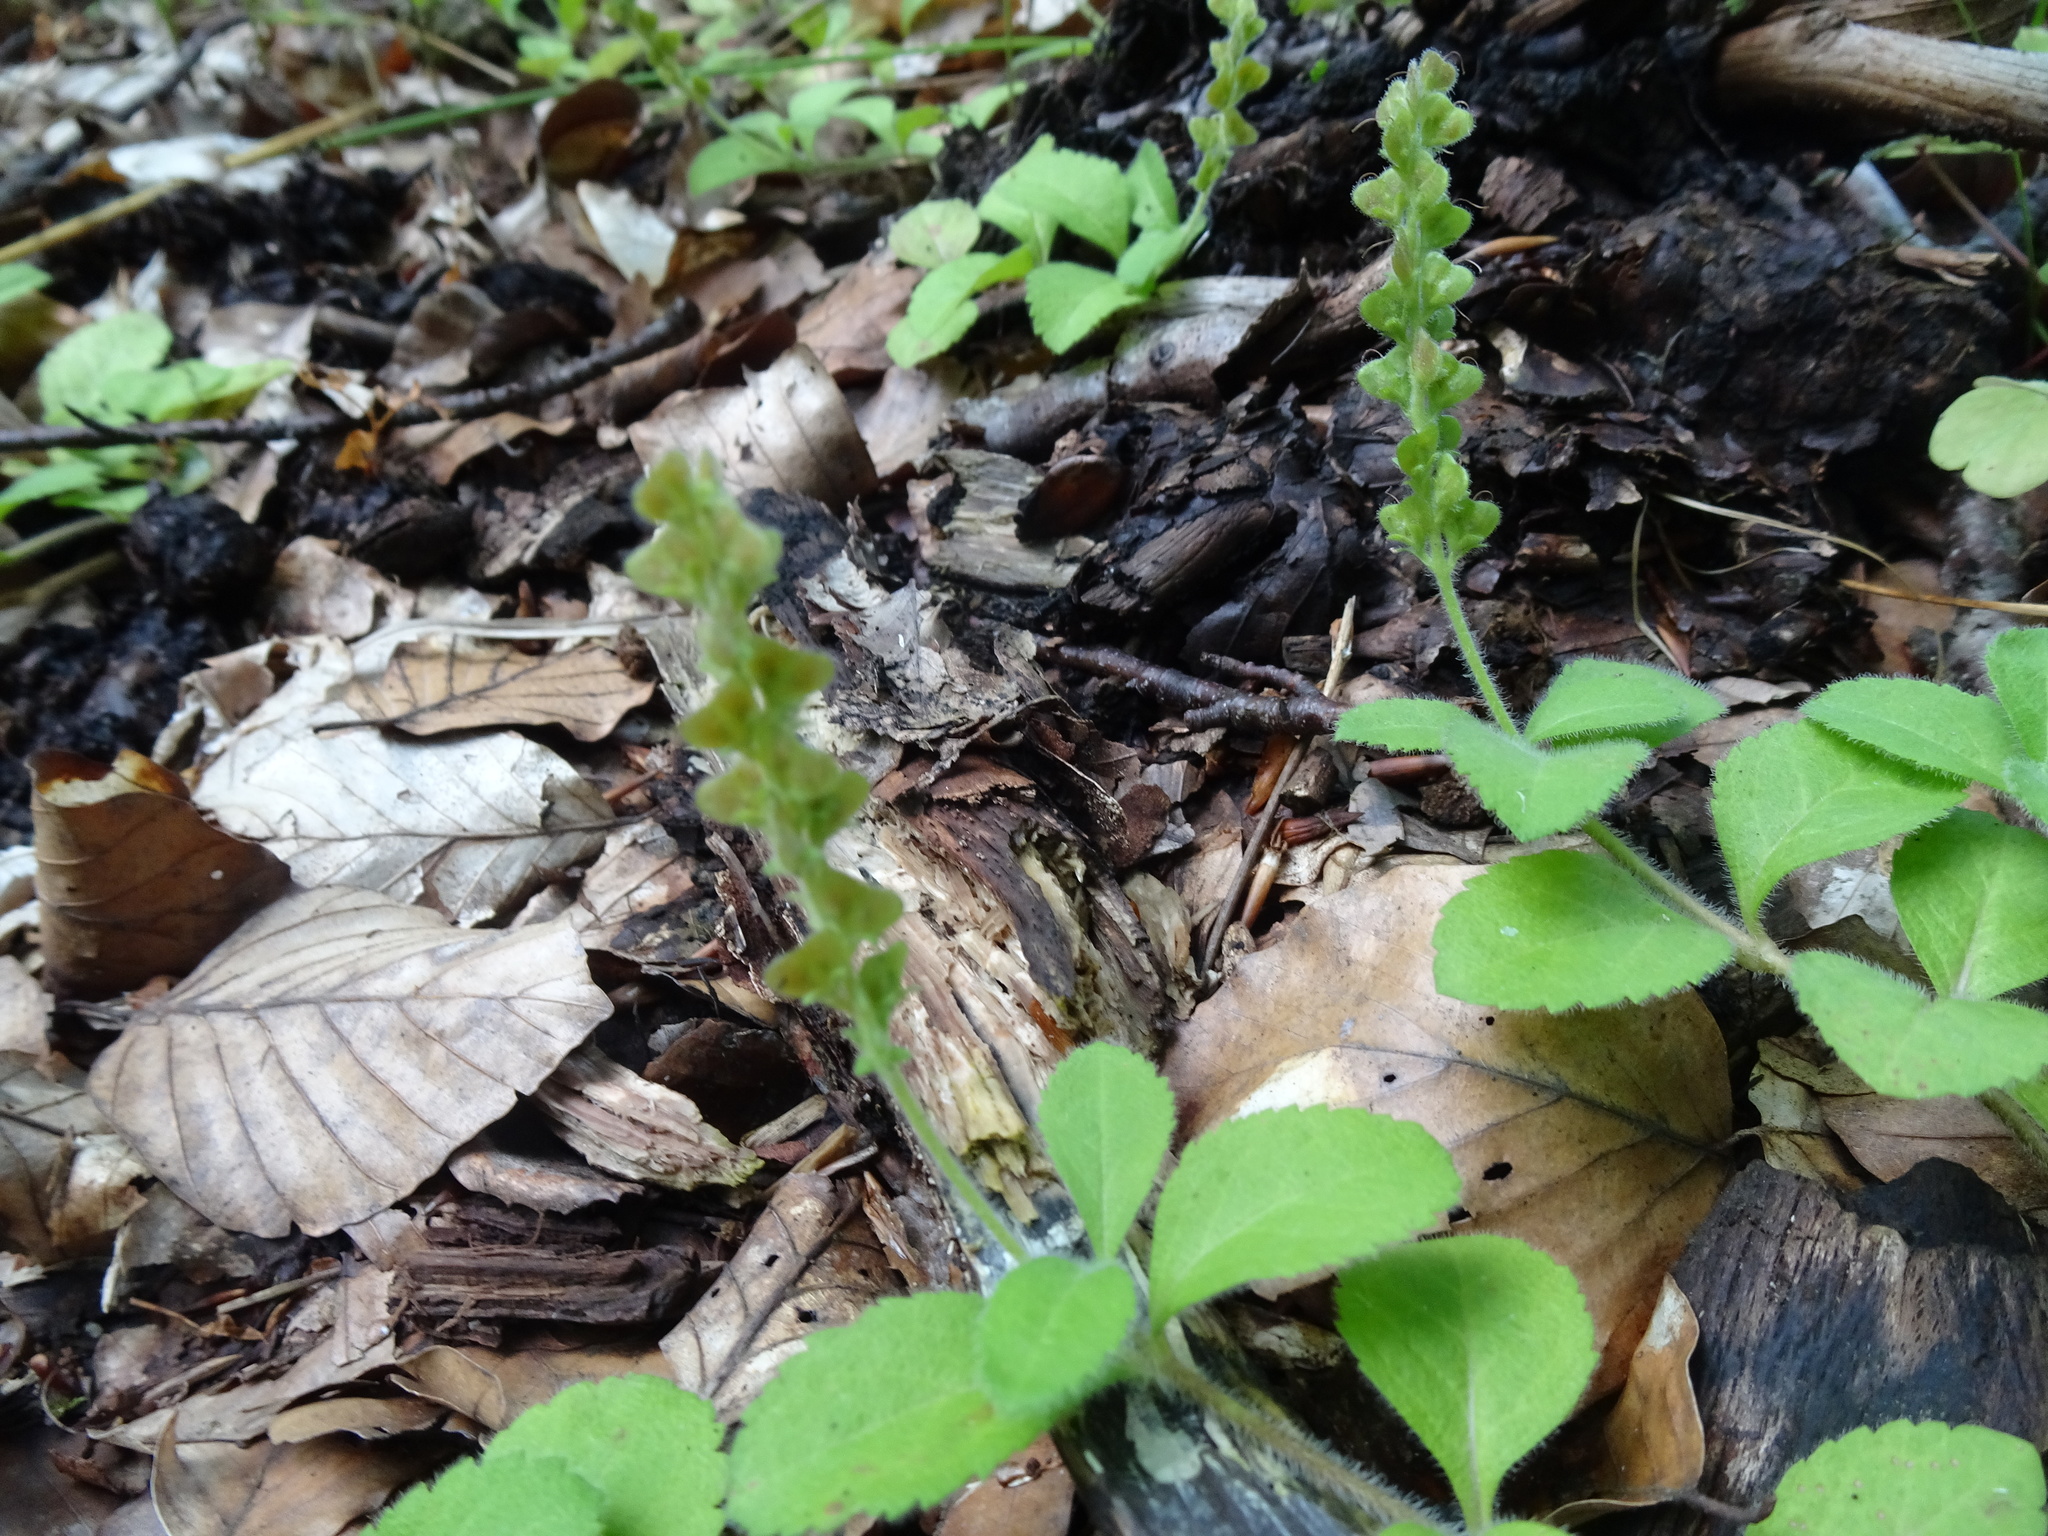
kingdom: Plantae
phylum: Tracheophyta
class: Magnoliopsida
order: Lamiales
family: Plantaginaceae
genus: Veronica
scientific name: Veronica officinalis
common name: Common speedwell
